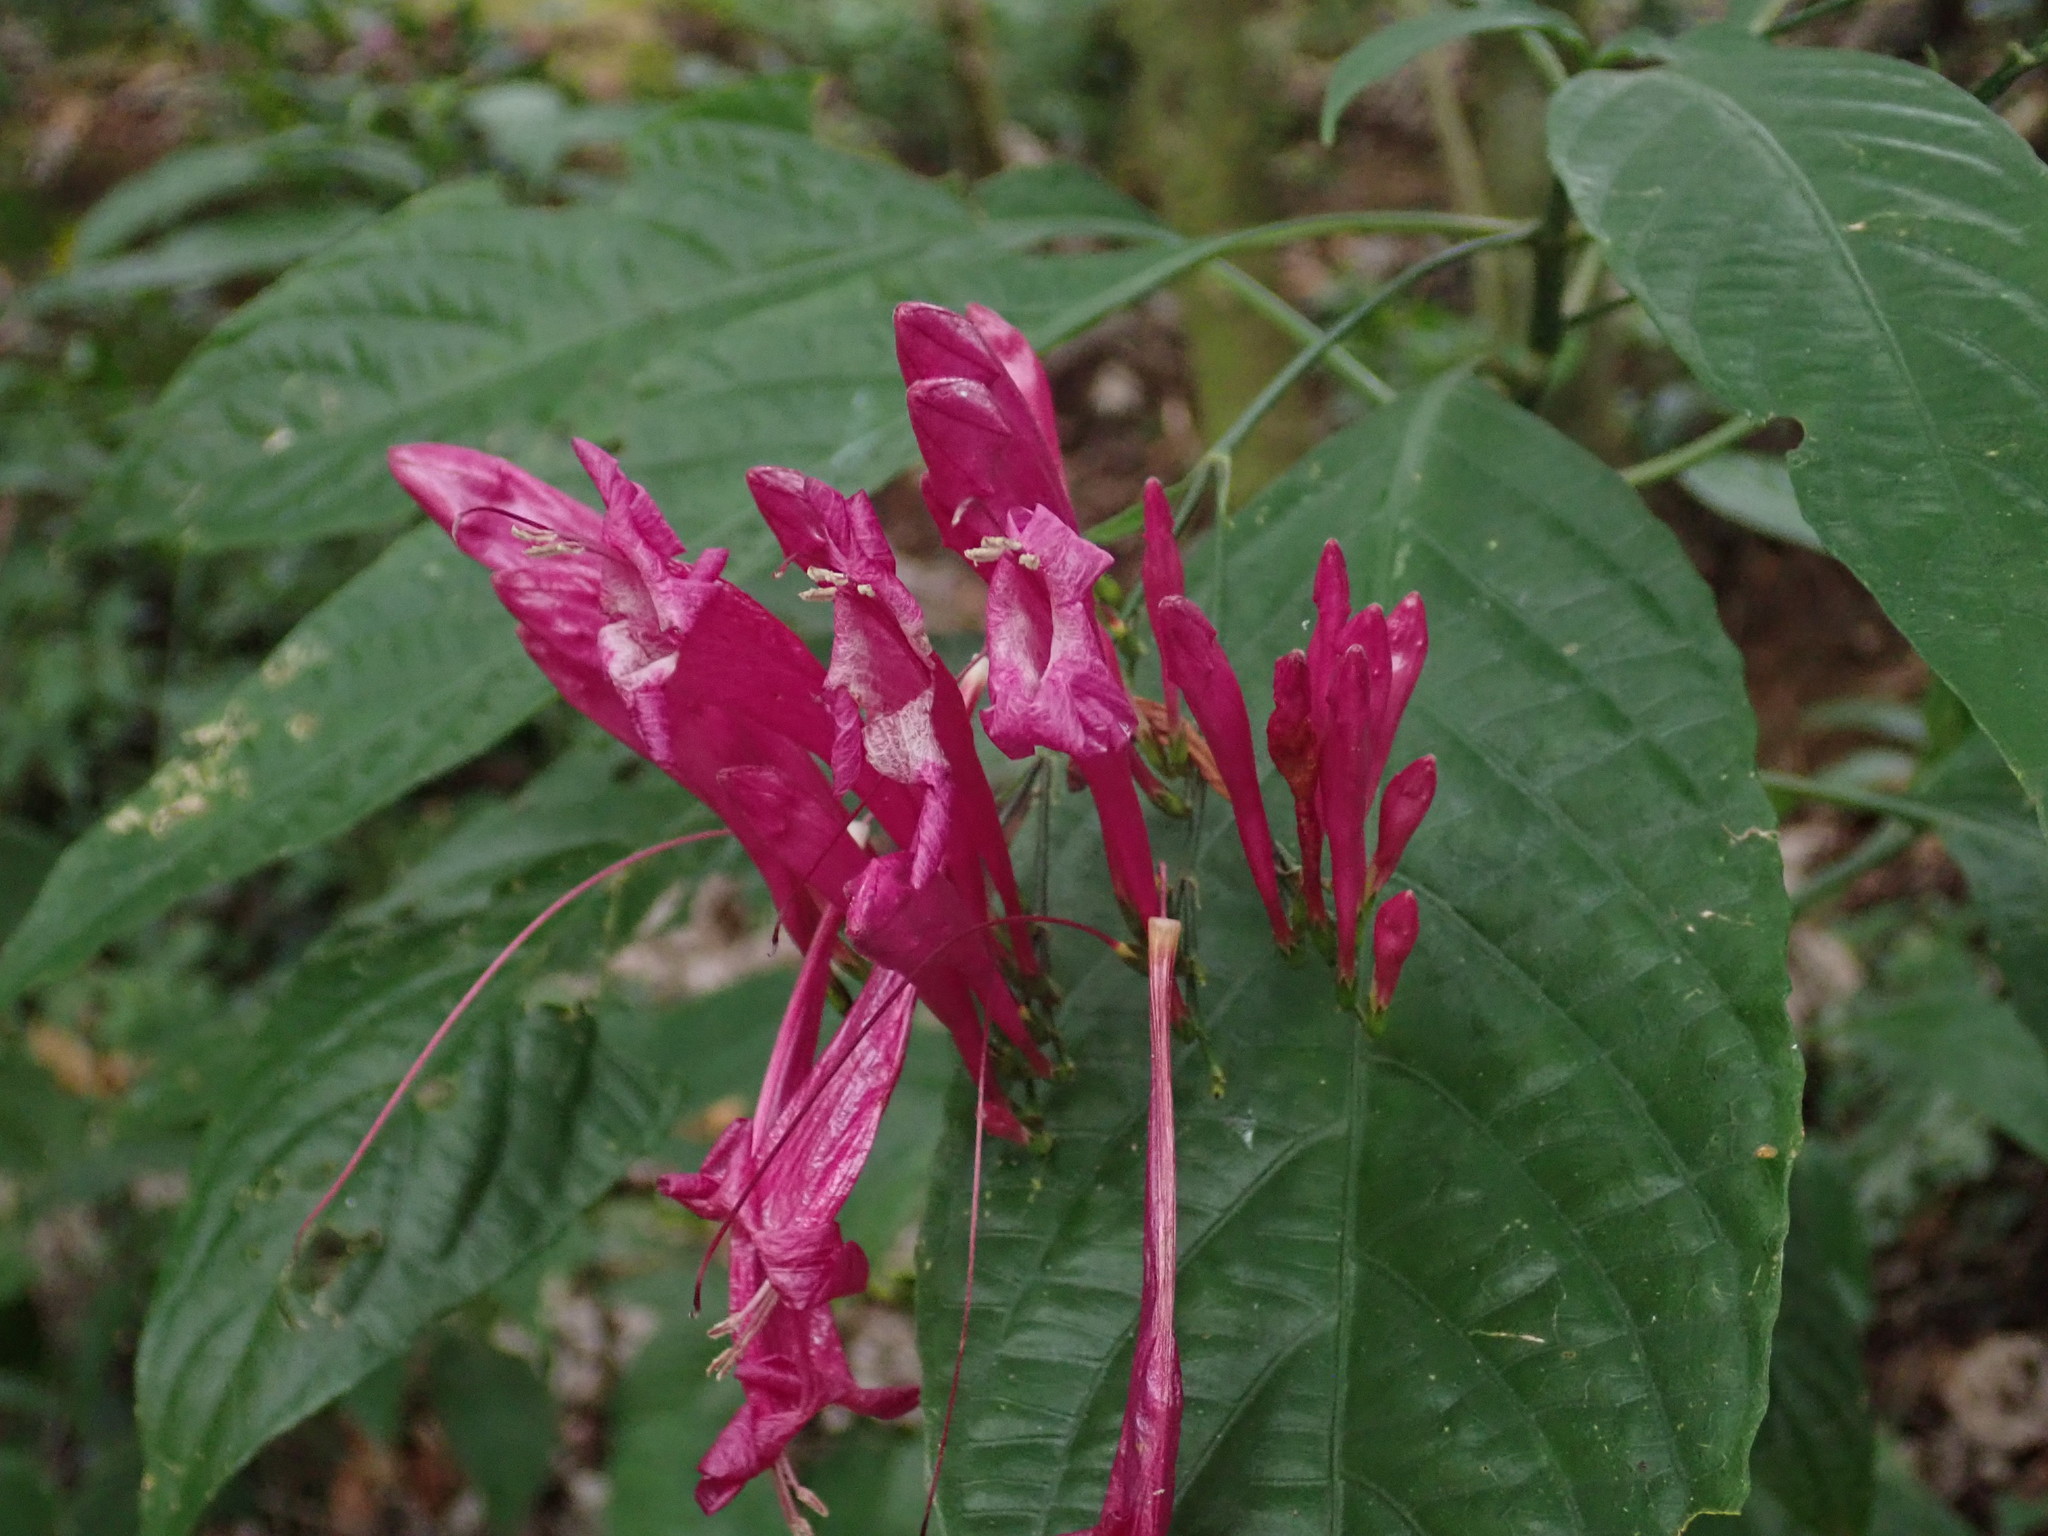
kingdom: Plantae
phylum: Tracheophyta
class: Magnoliopsida
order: Lamiales
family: Acanthaceae
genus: Ruellia
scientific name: Ruellia eumorphantha
